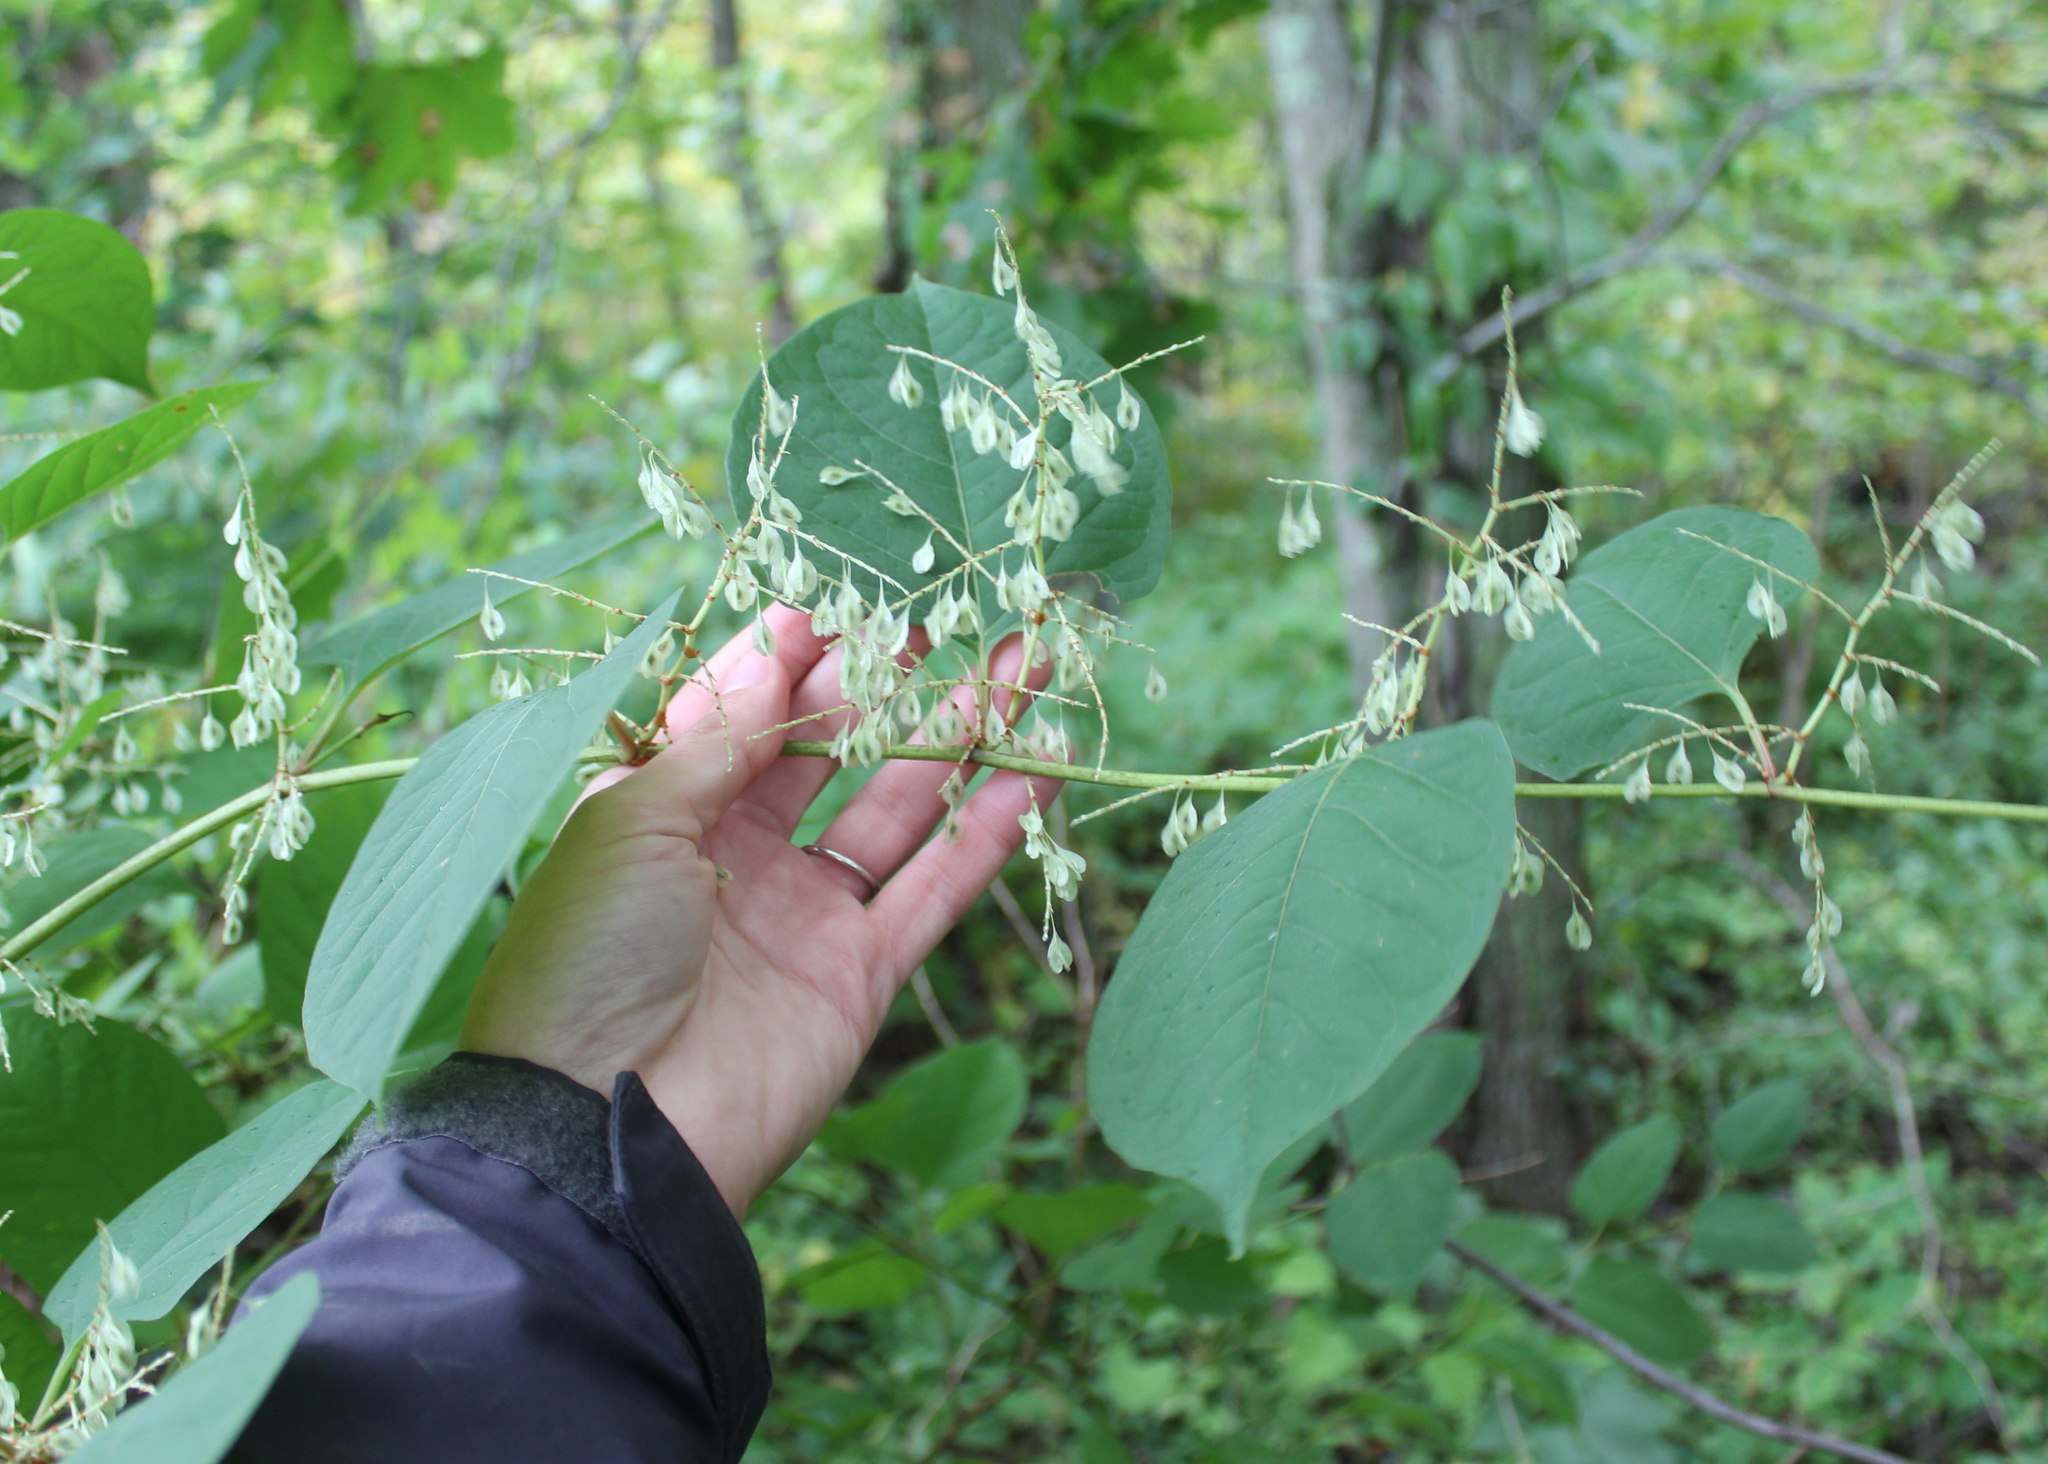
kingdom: Plantae
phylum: Tracheophyta
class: Magnoliopsida
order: Caryophyllales
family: Polygonaceae
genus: Reynoutria
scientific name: Reynoutria japonica
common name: Japanese knotweed
